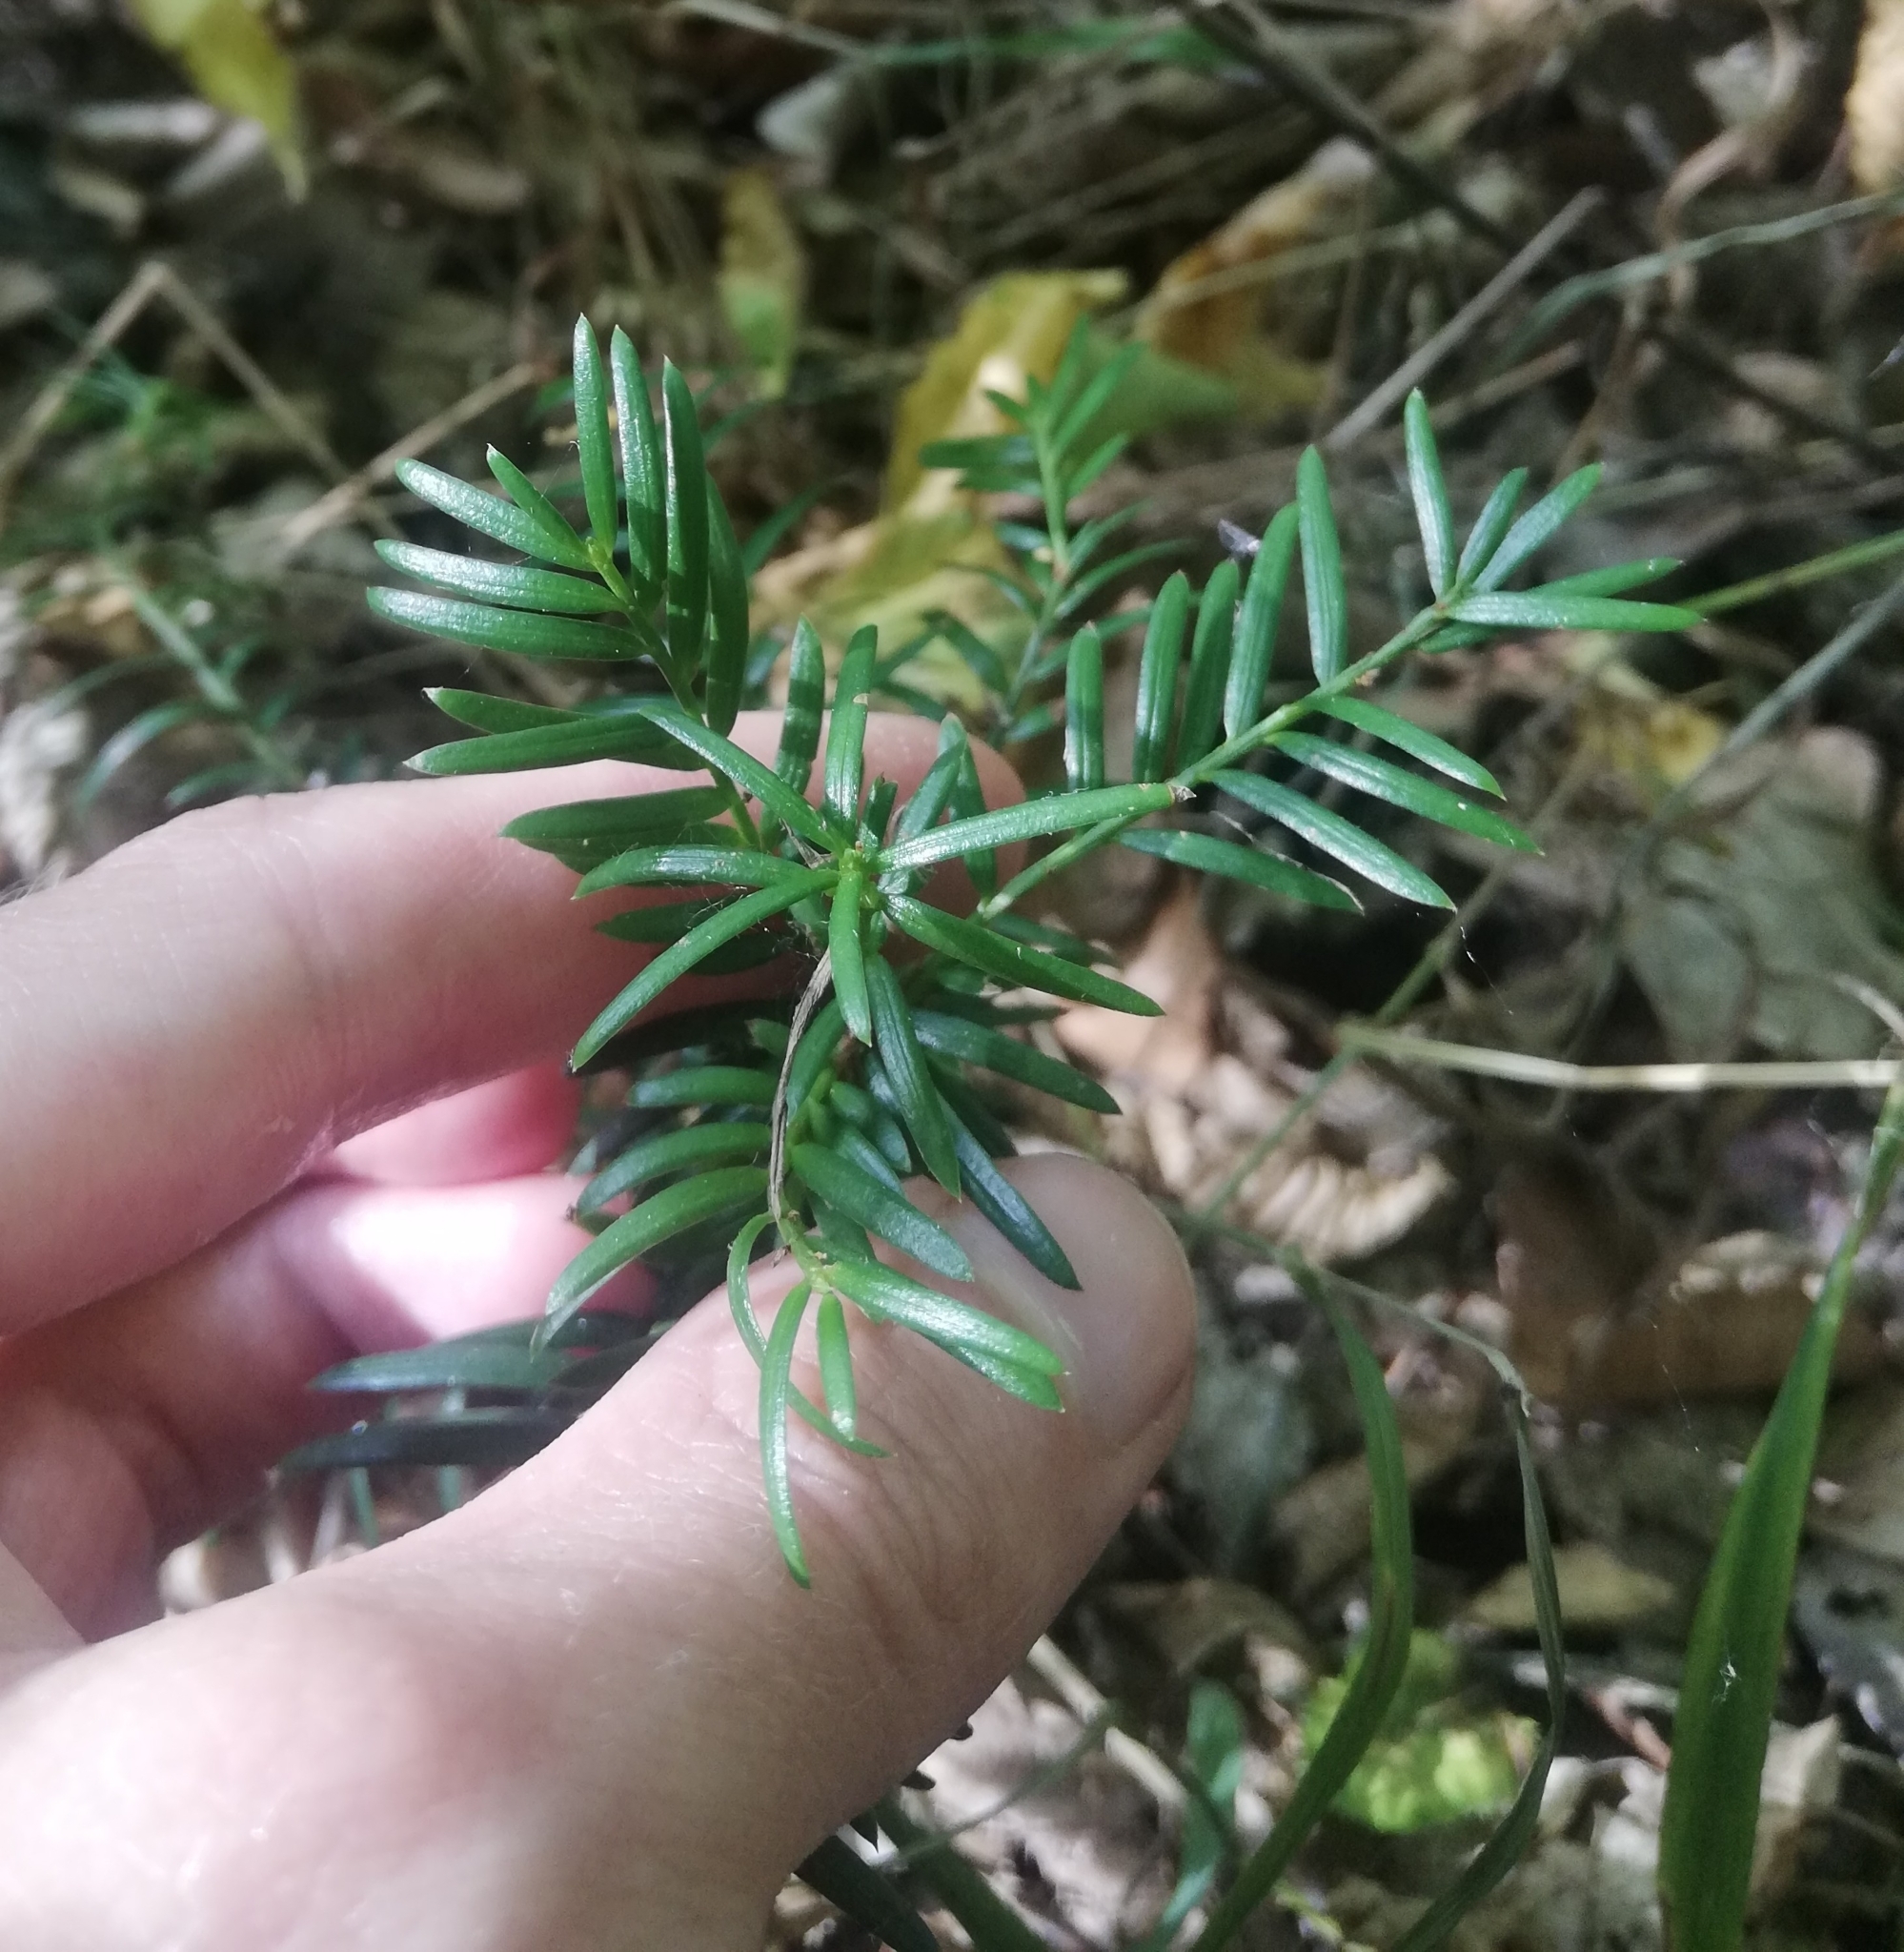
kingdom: Plantae
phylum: Tracheophyta
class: Pinopsida
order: Pinales
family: Taxaceae
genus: Taxus
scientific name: Taxus baccata
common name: Yew
